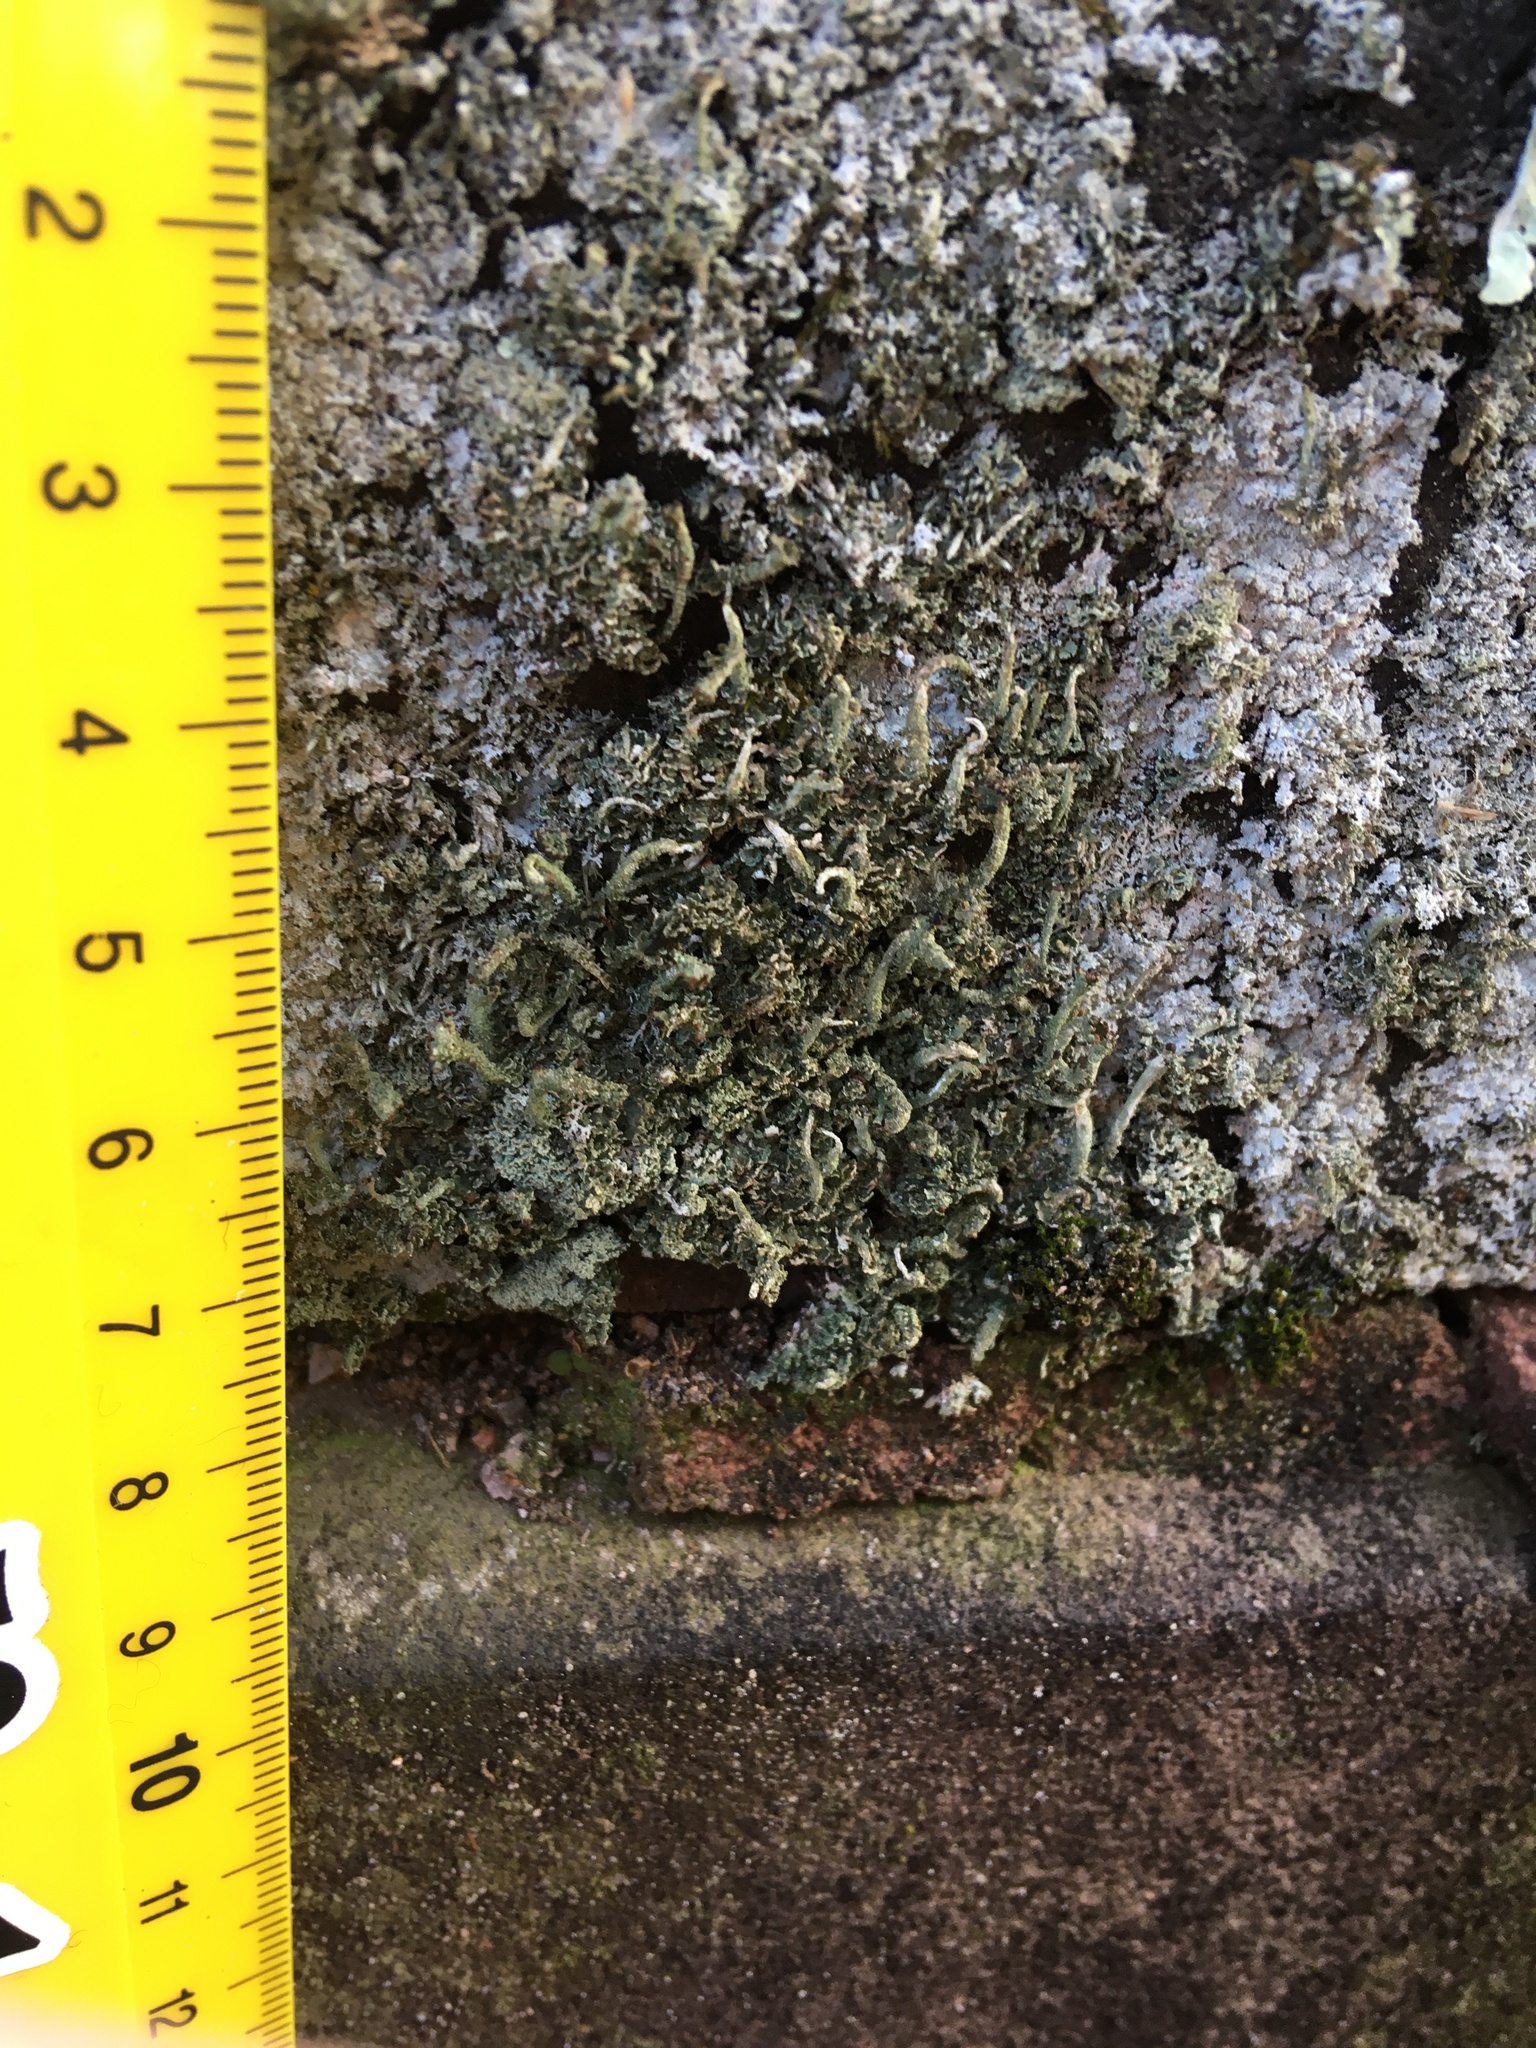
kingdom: Fungi
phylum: Ascomycota
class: Lecanoromycetes
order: Lecanorales
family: Cladoniaceae
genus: Cladonia
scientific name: Cladonia coniocraea
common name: Common powderhorn
